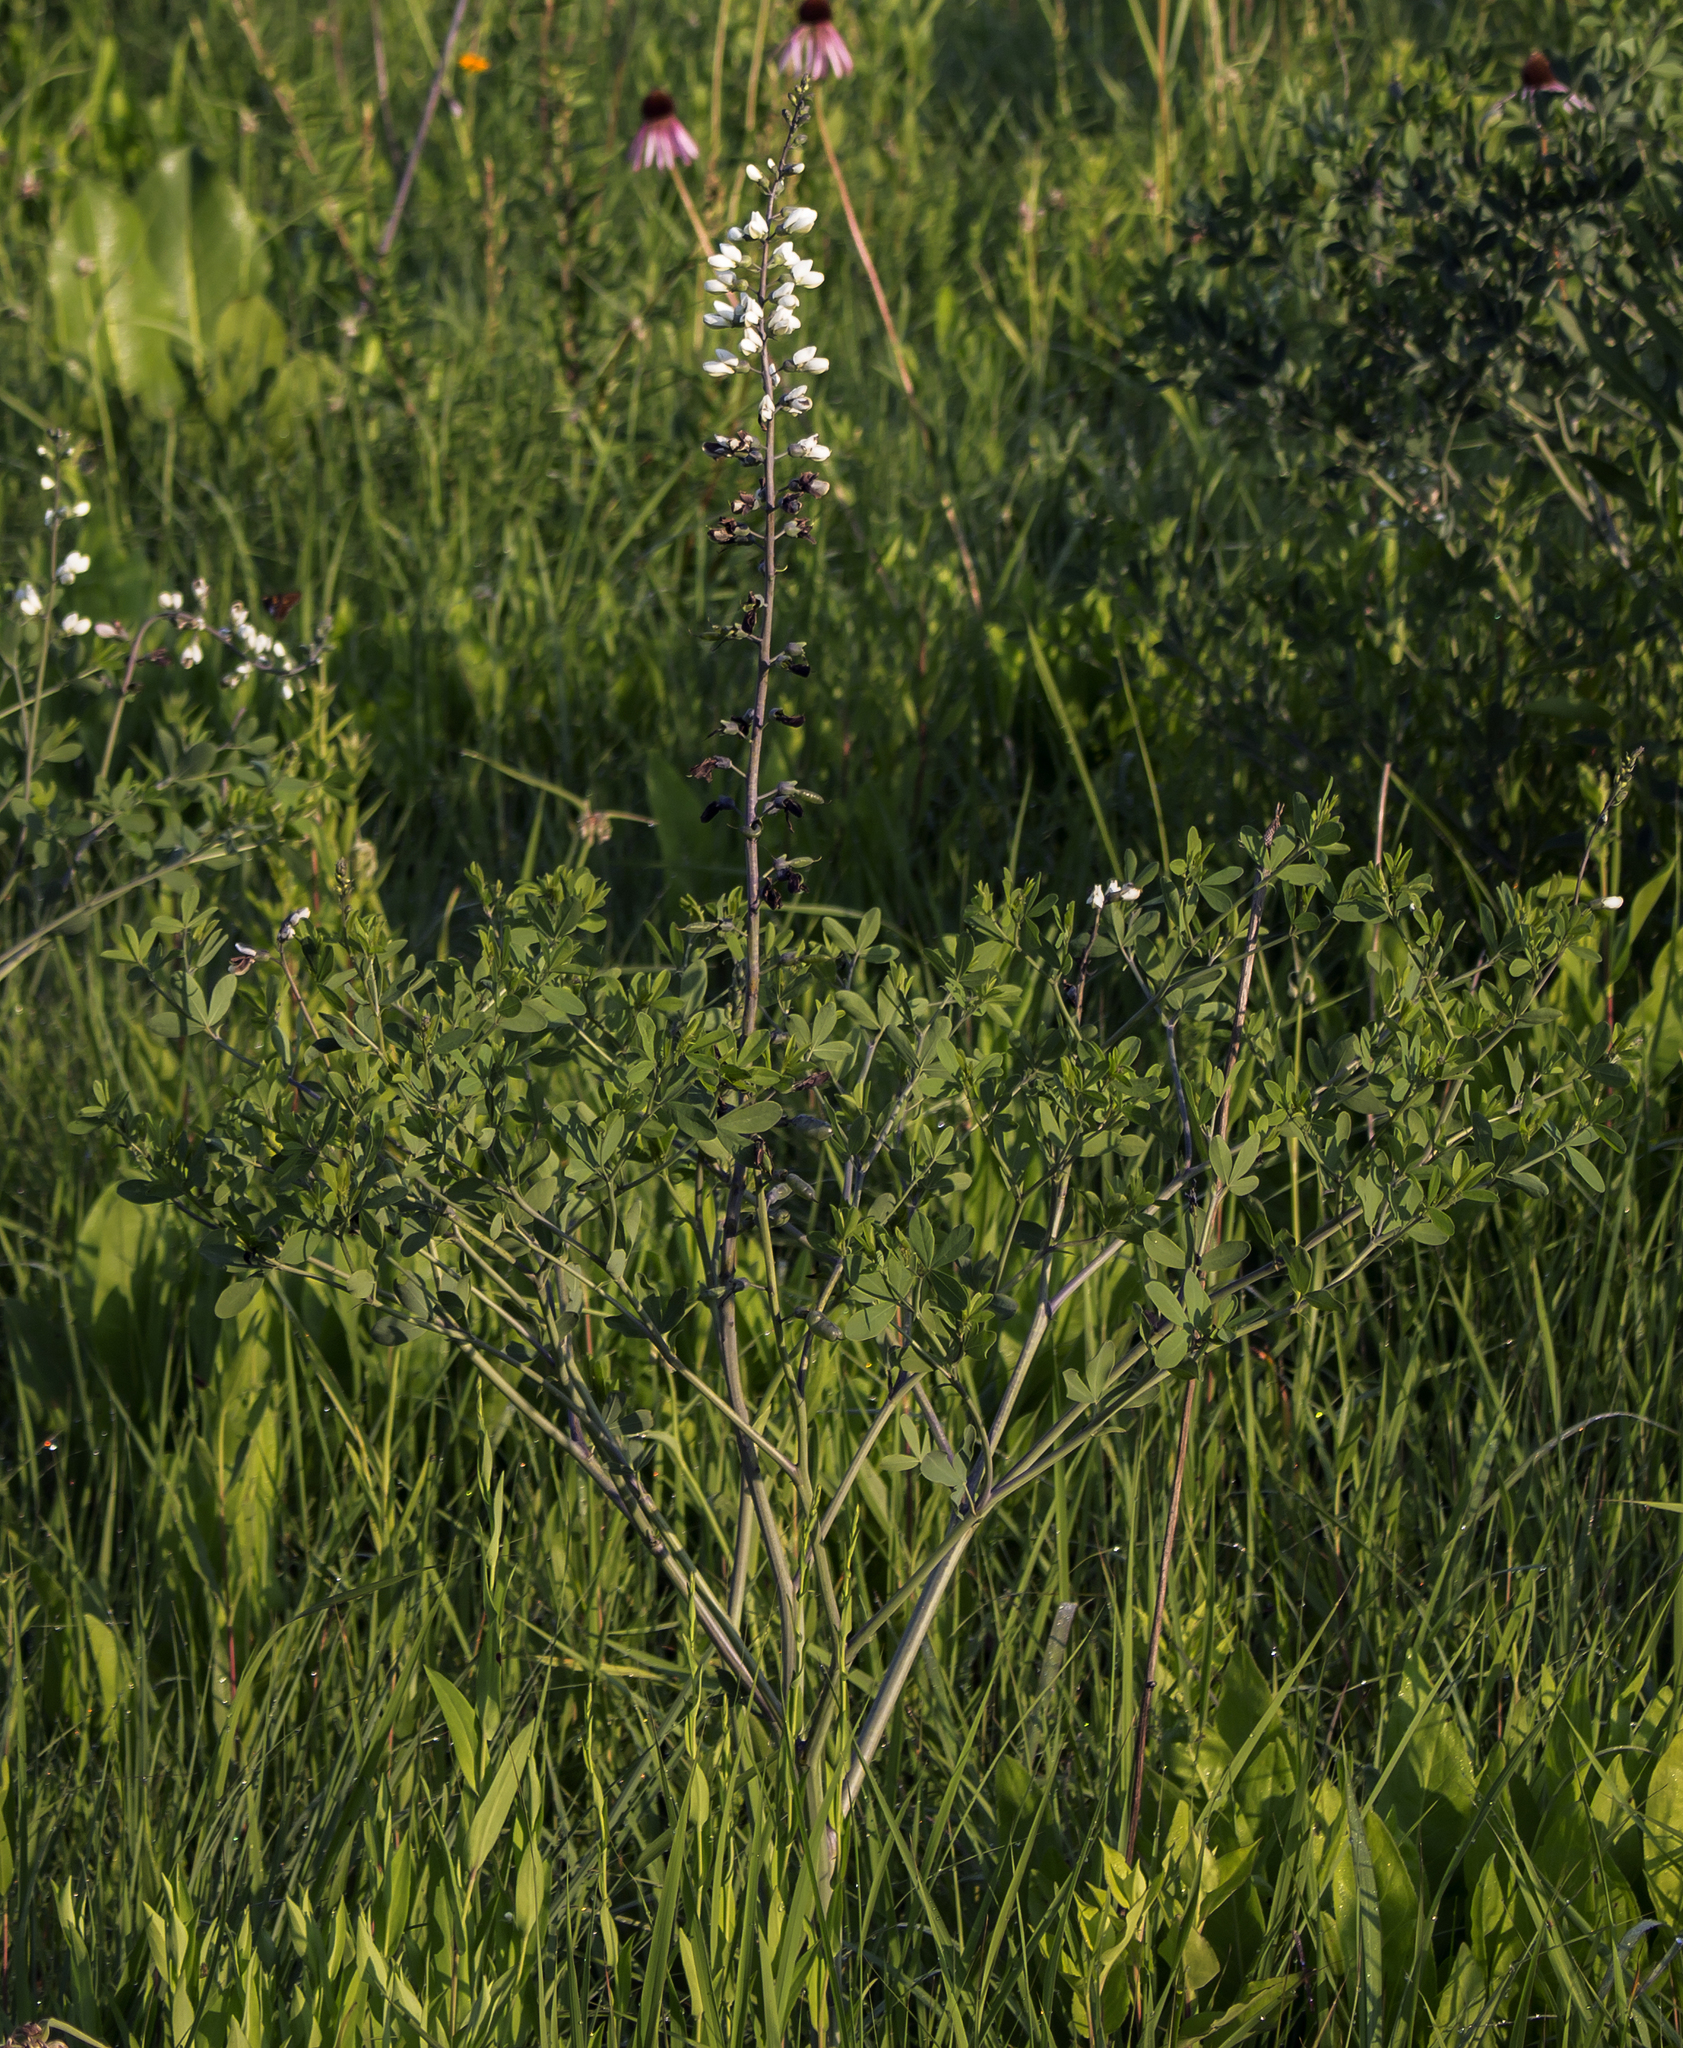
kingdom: Plantae
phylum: Tracheophyta
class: Magnoliopsida
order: Fabales
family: Fabaceae
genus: Baptisia
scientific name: Baptisia alba
